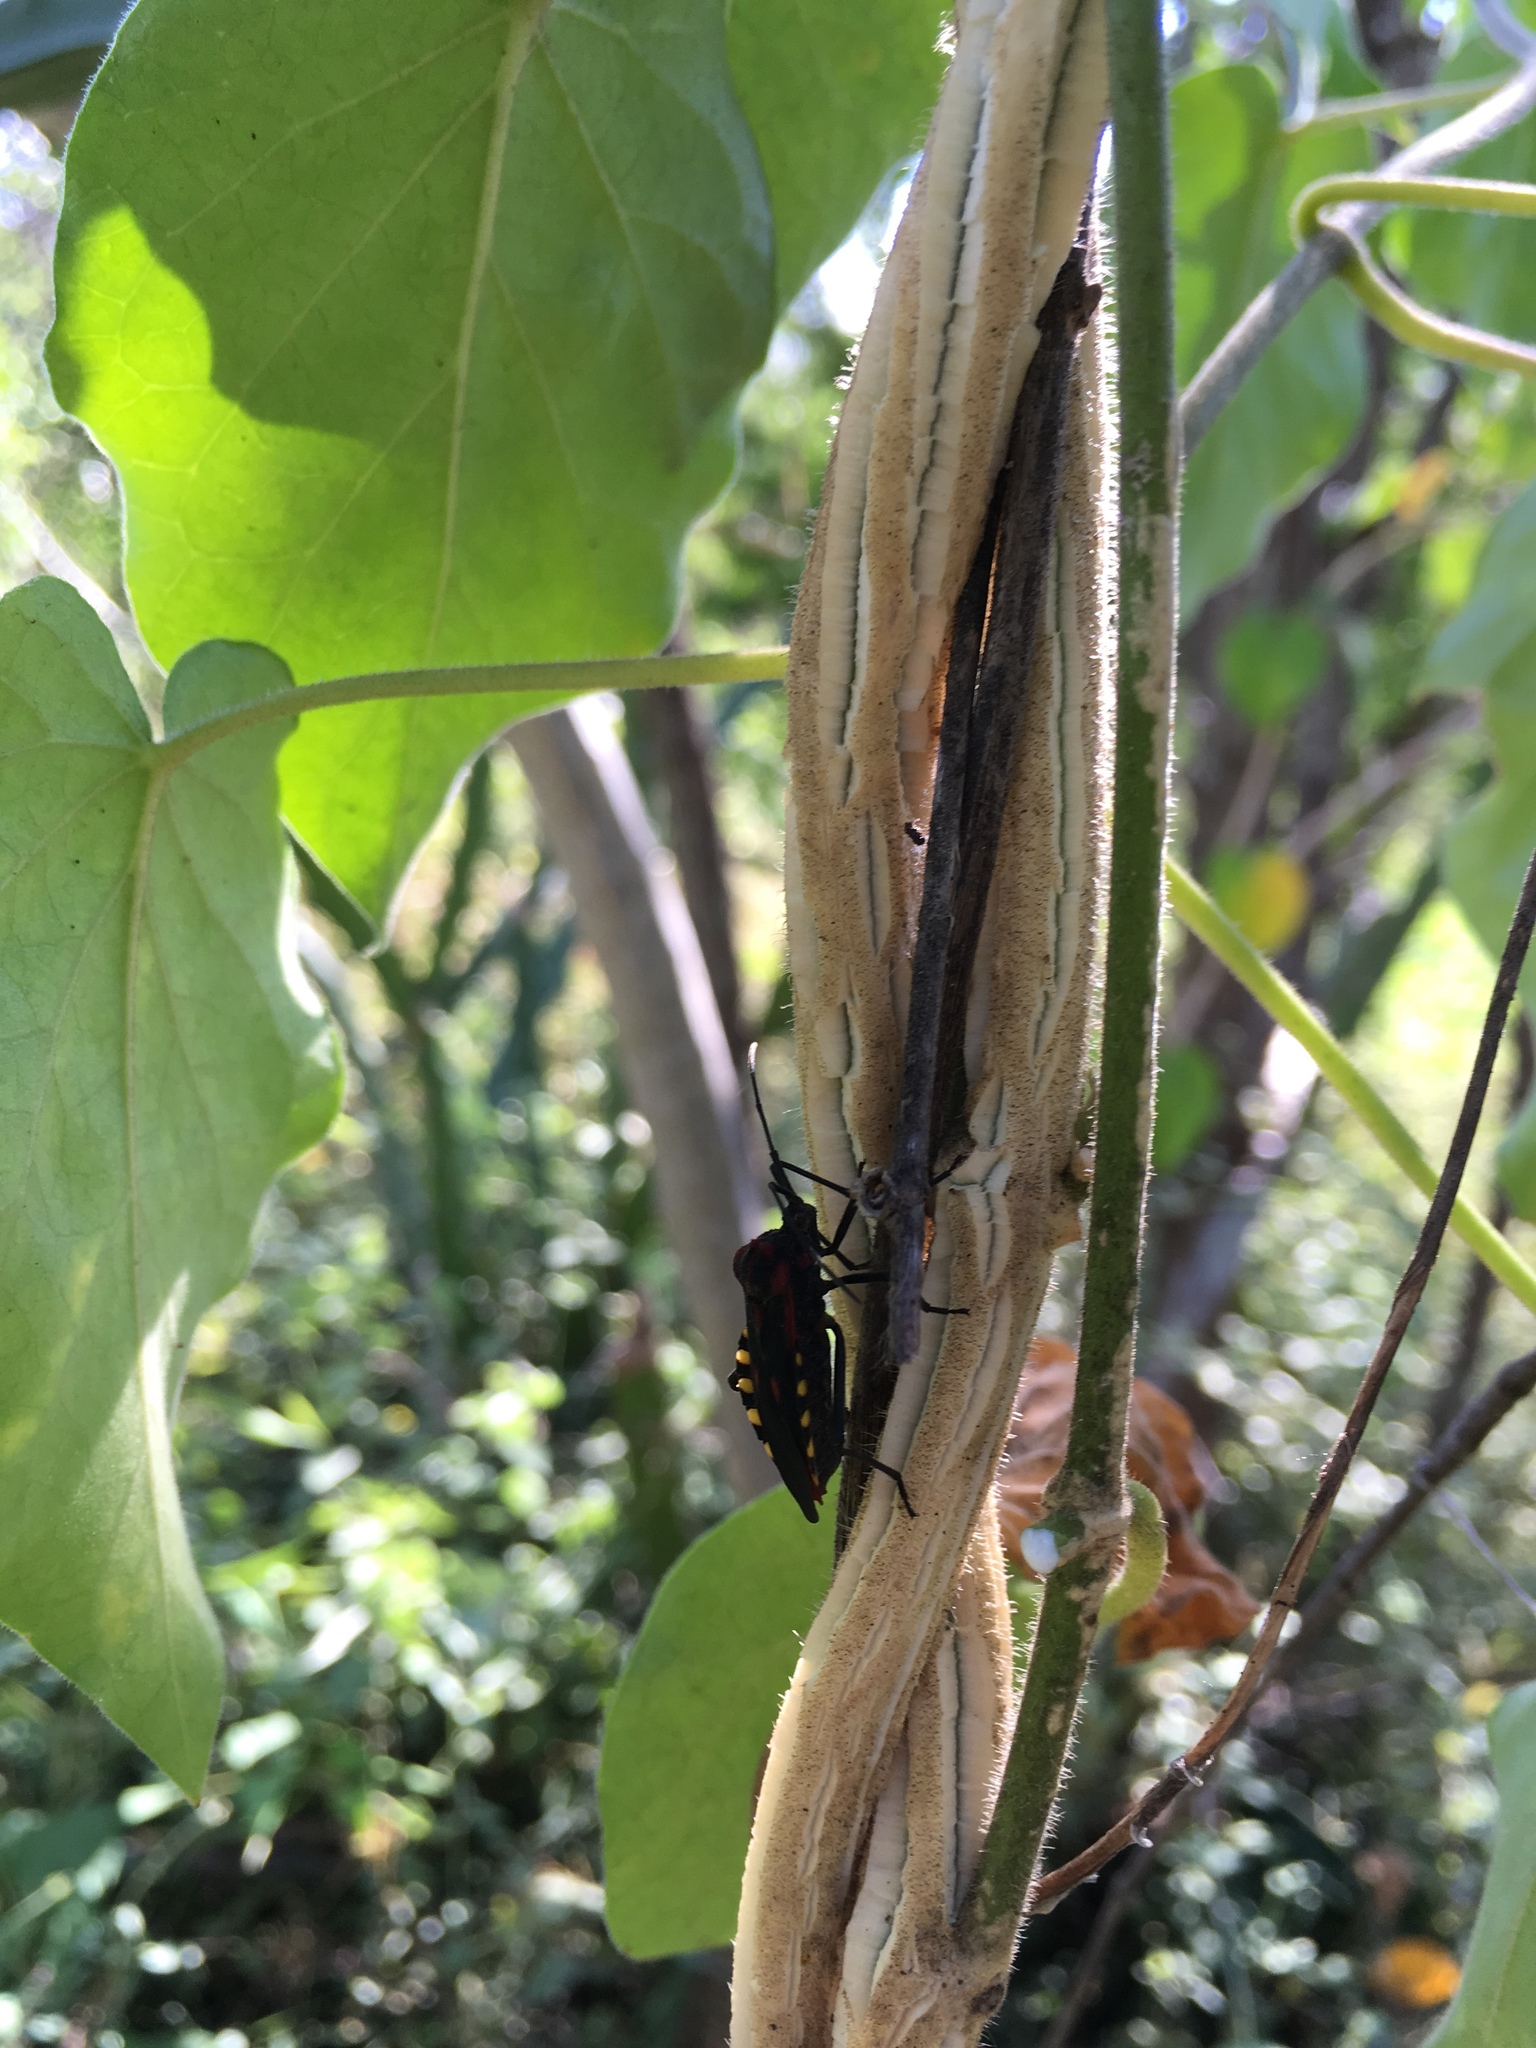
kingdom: Animalia
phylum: Arthropoda
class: Insecta
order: Hemiptera
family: Coreidae
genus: Sephina
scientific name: Sephina pustulata
